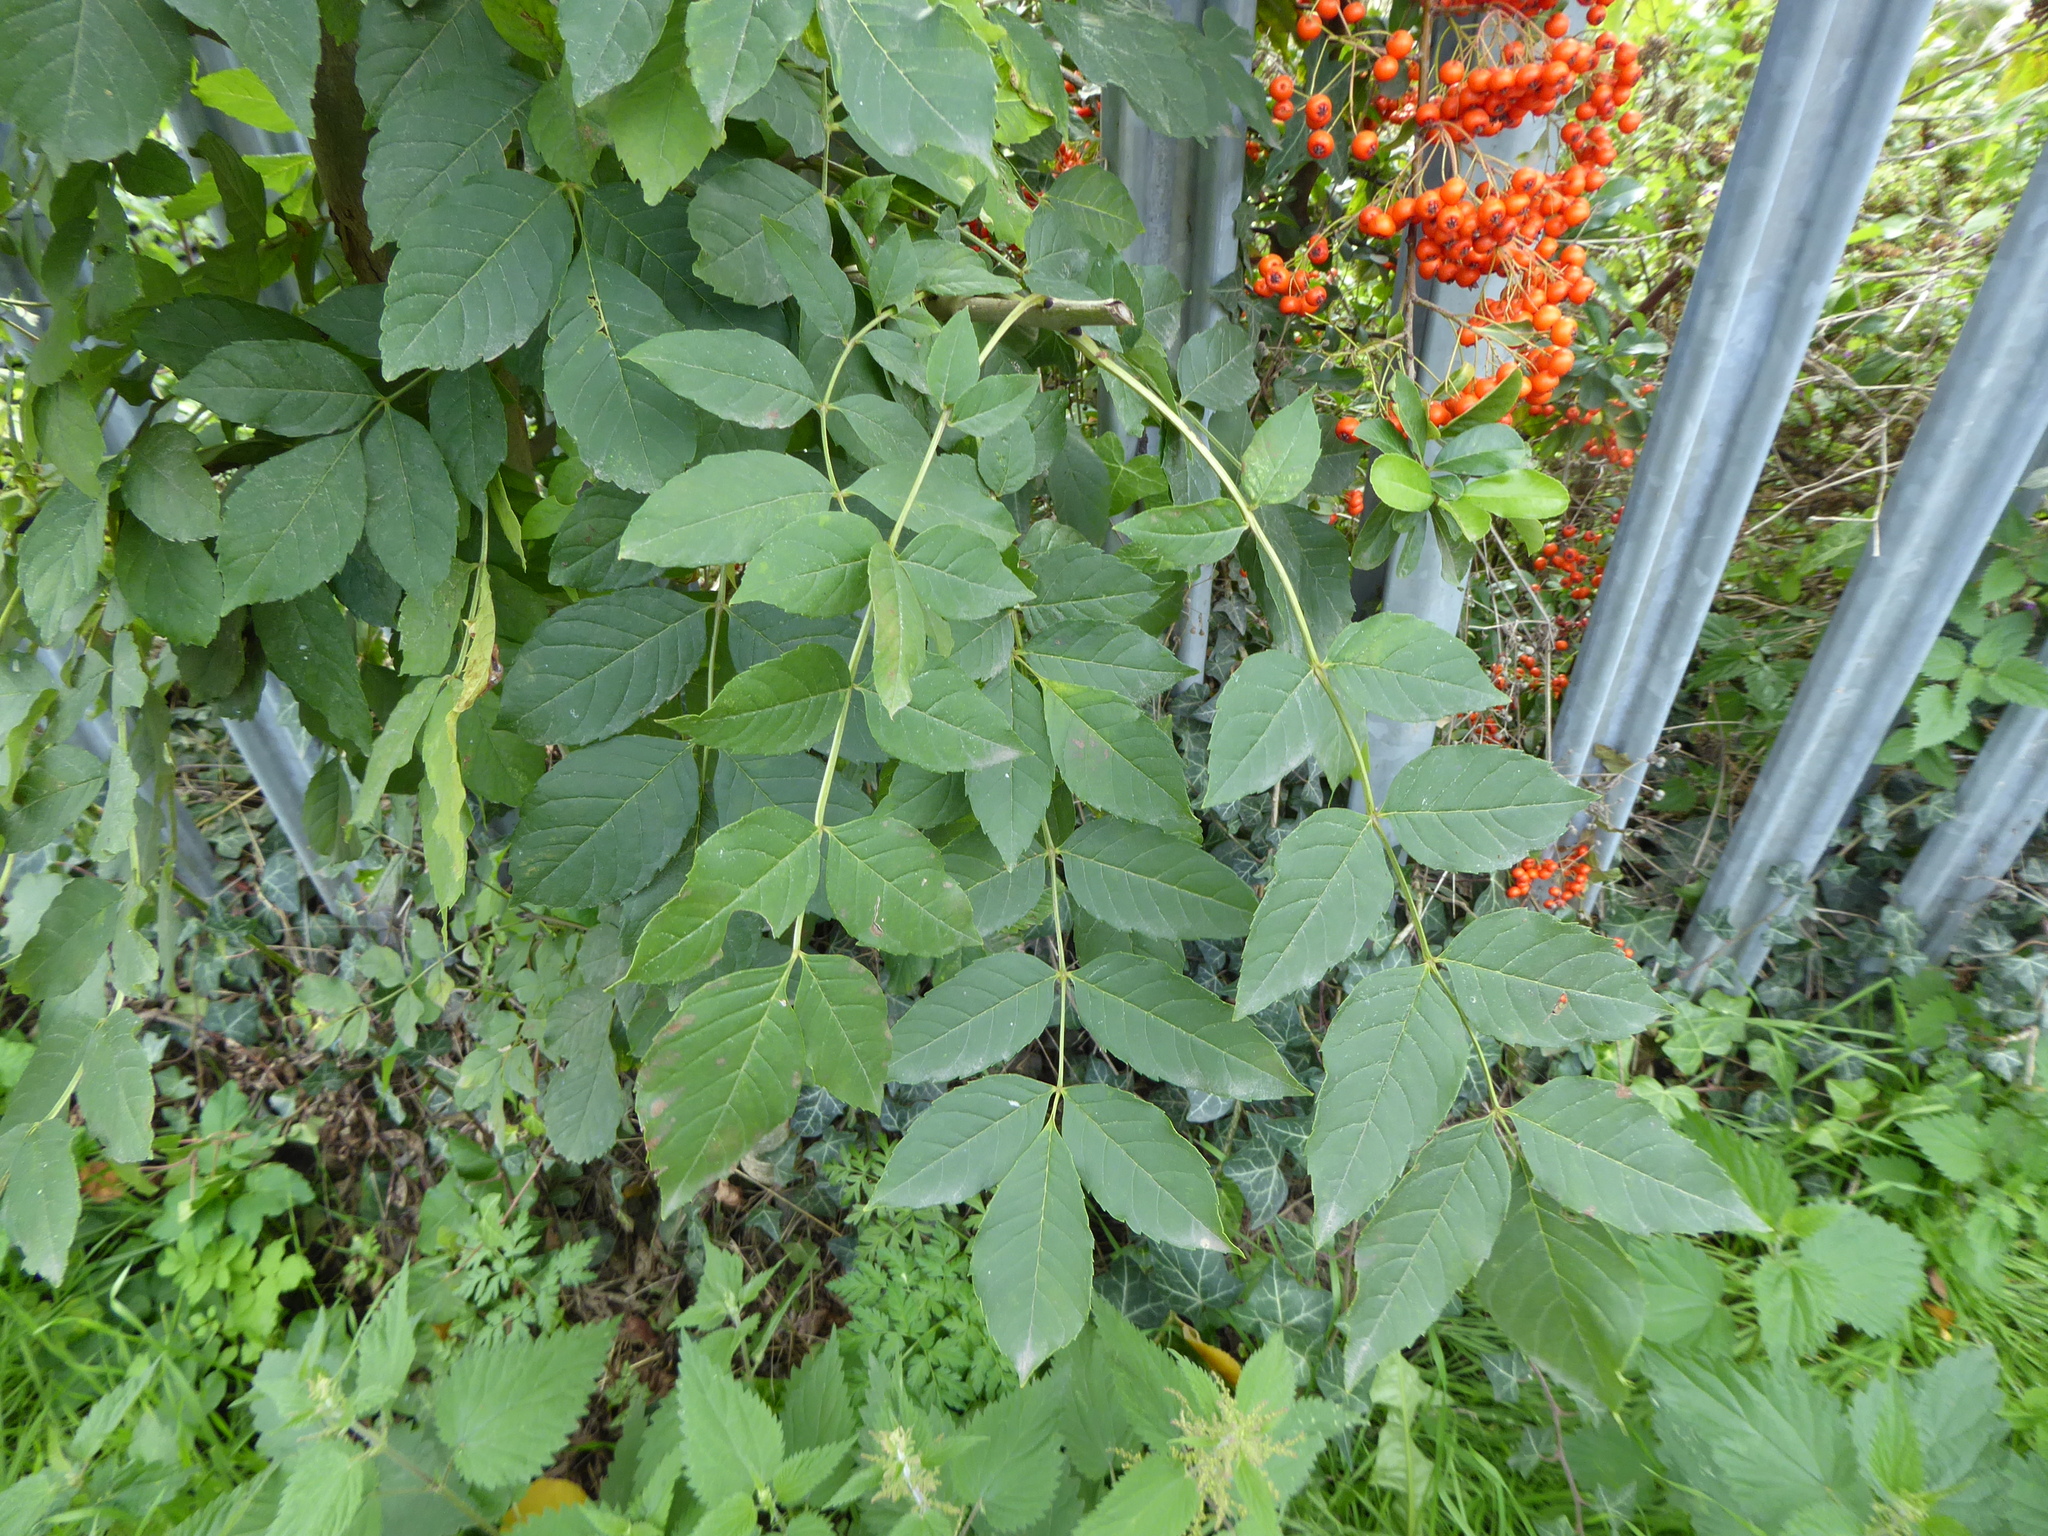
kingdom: Plantae
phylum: Tracheophyta
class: Magnoliopsida
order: Lamiales
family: Oleaceae
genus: Fraxinus
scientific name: Fraxinus excelsior
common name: European ash
